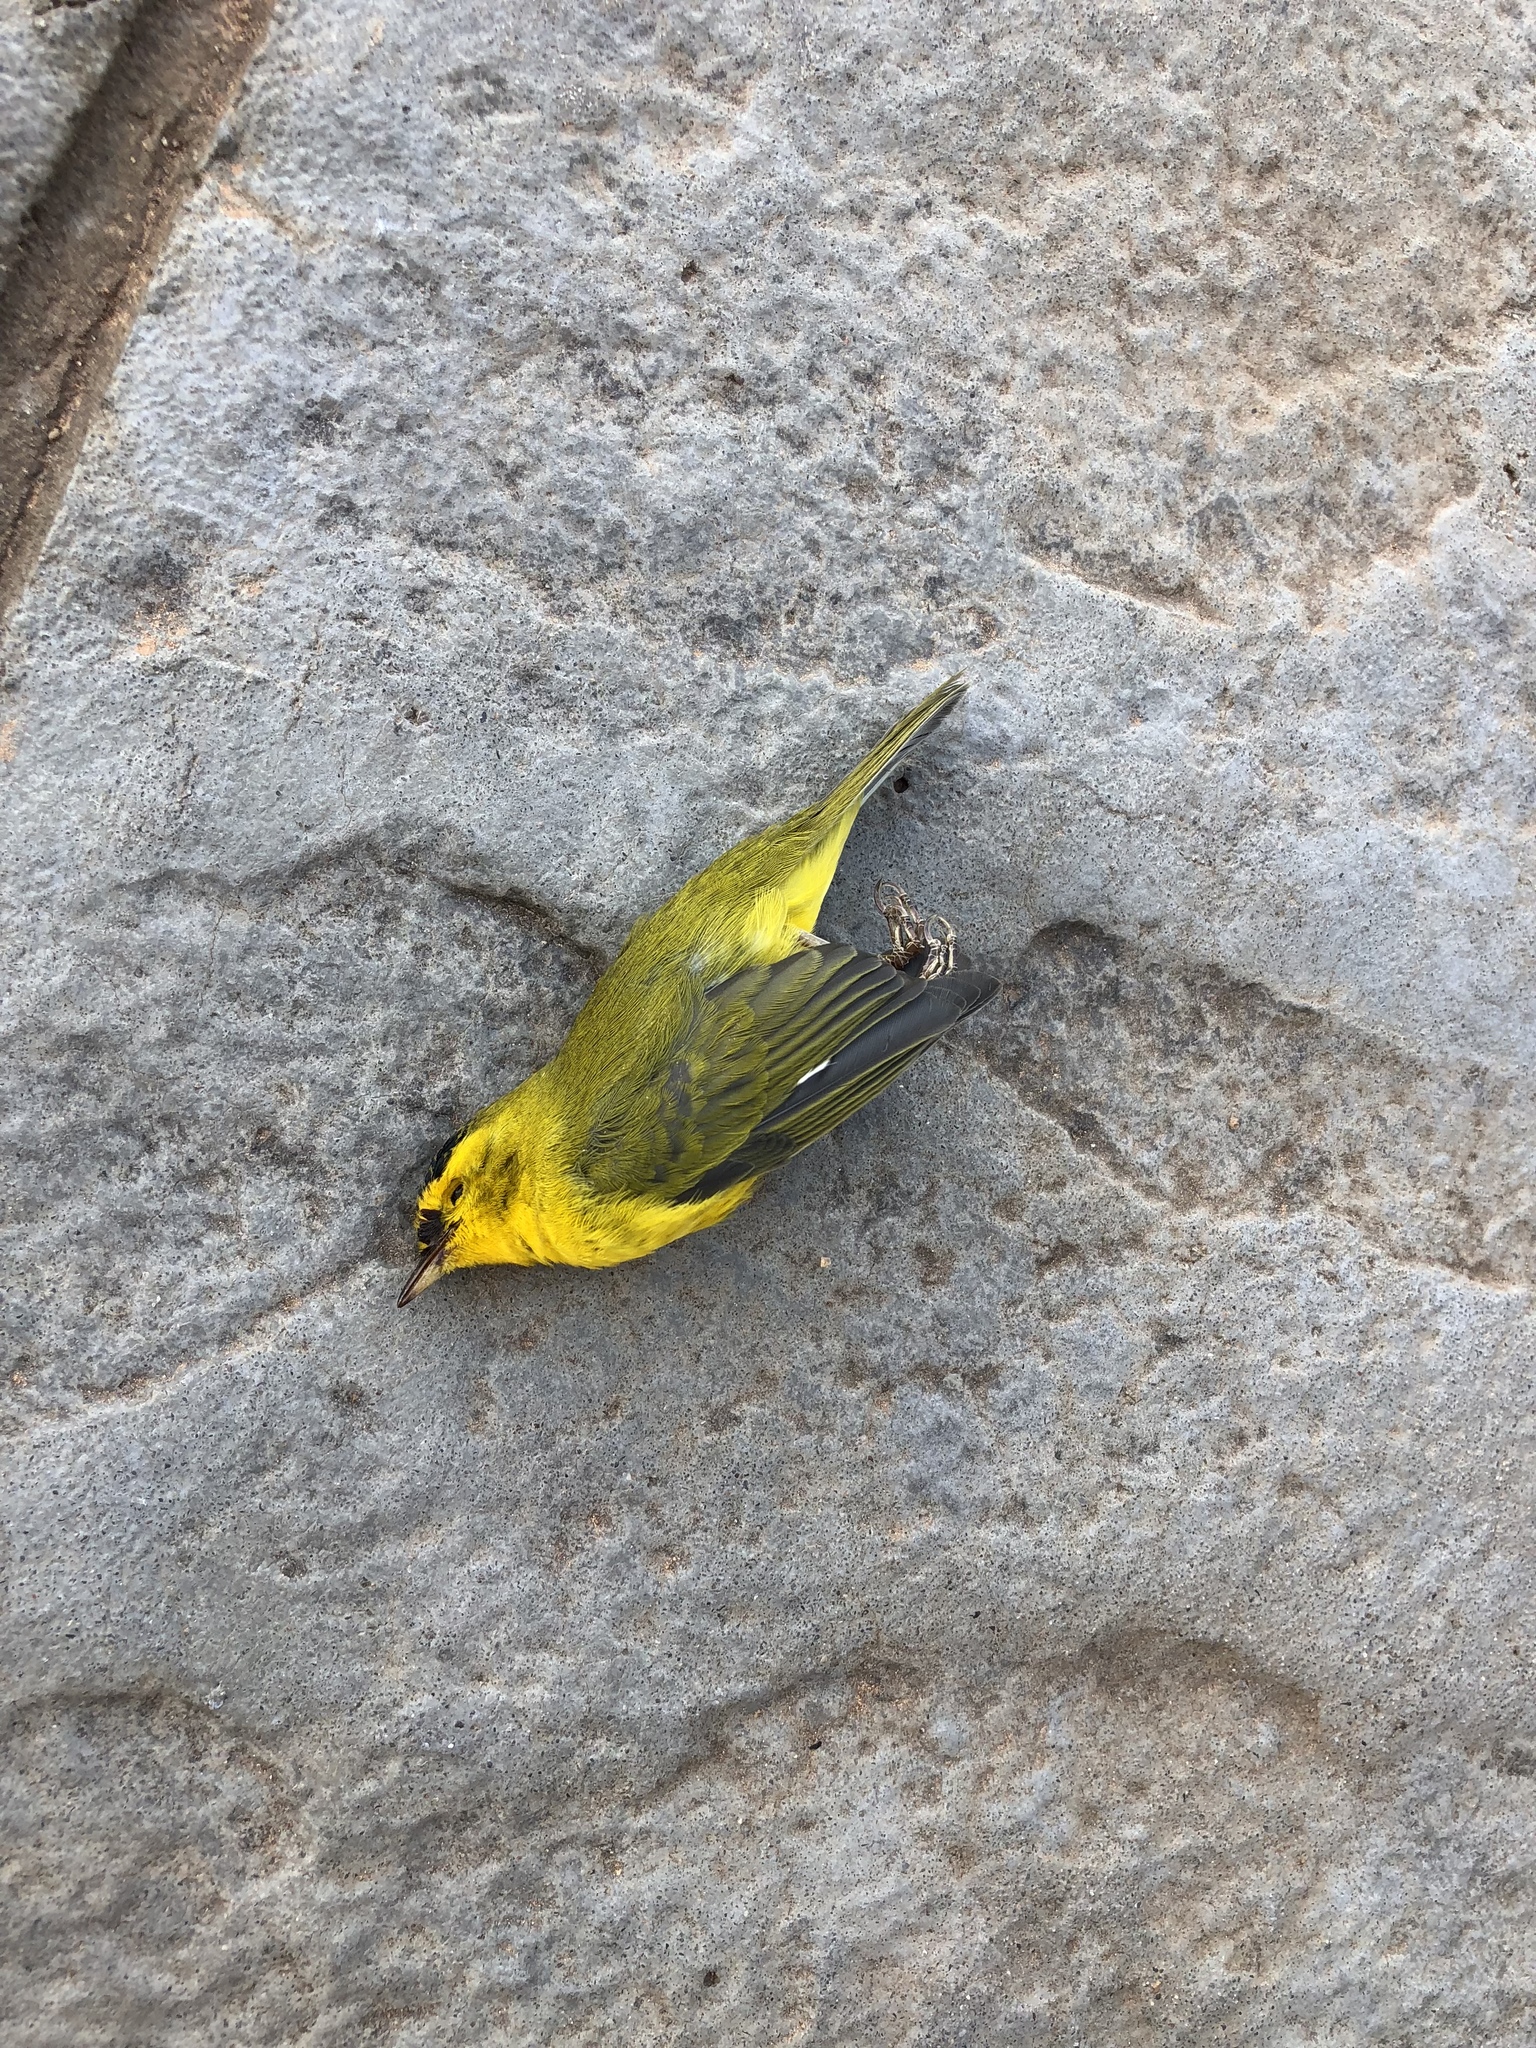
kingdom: Animalia
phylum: Chordata
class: Aves
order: Passeriformes
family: Parulidae
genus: Cardellina
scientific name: Cardellina pusilla
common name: Wilson's warbler
